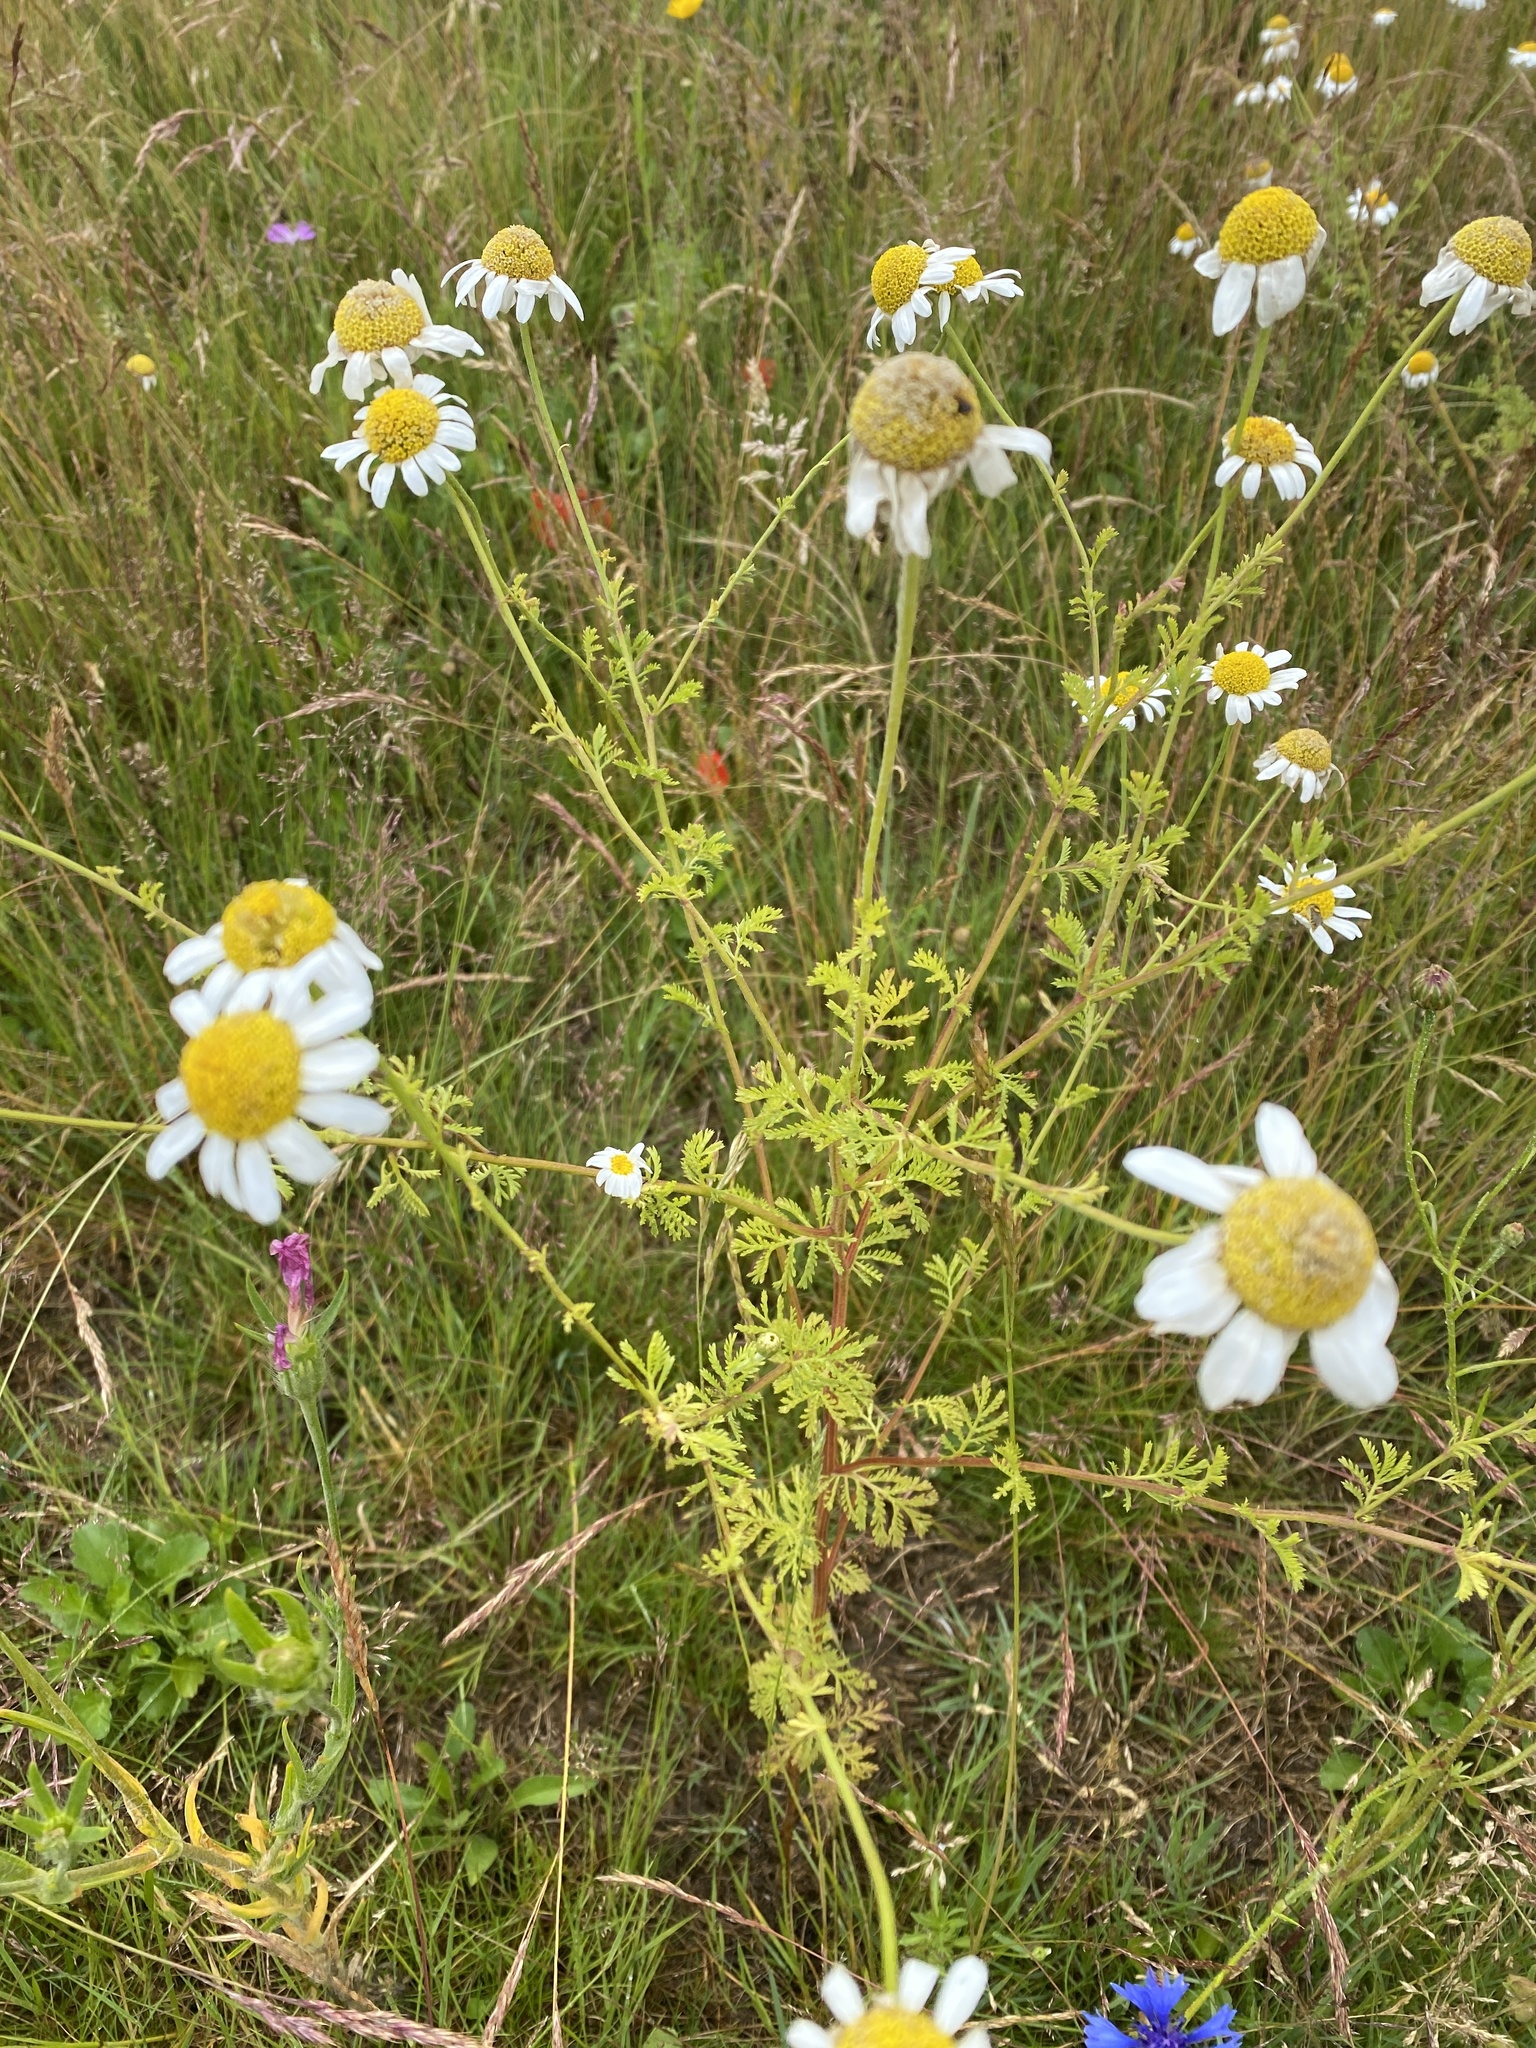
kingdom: Plantae
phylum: Tracheophyta
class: Magnoliopsida
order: Asterales
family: Asteraceae
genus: Matricaria
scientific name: Matricaria chamomilla
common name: Scented mayweed
